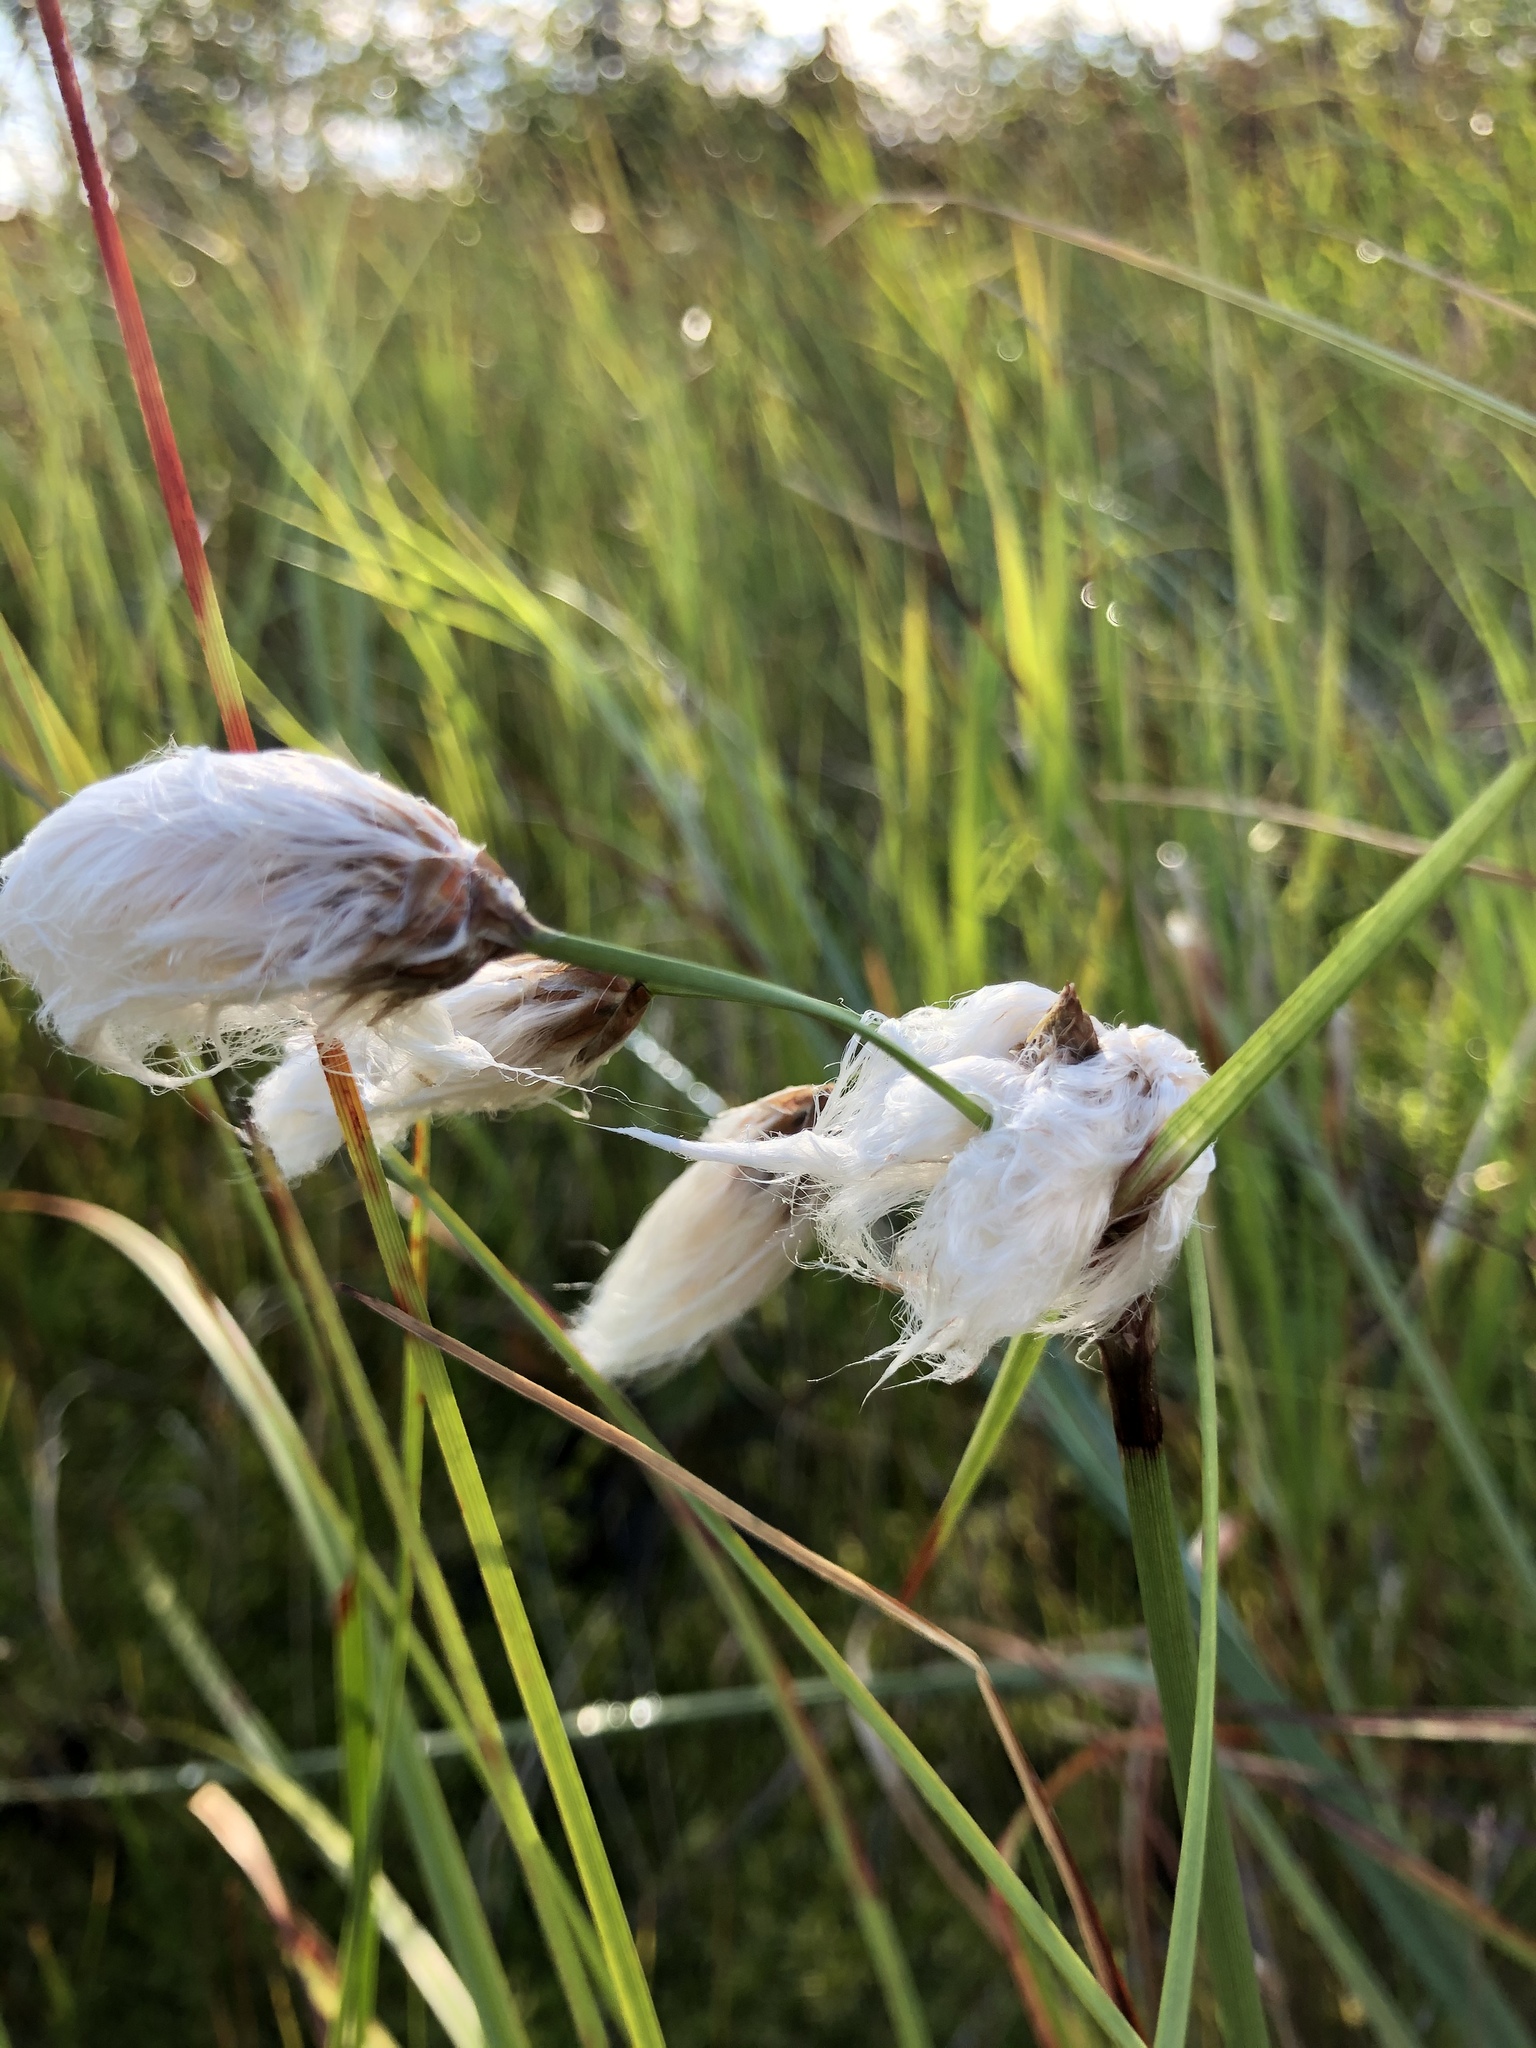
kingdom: Plantae
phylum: Tracheophyta
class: Liliopsida
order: Poales
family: Cyperaceae
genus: Eriophorum
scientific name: Eriophorum angustifolium
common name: Common cottongrass
